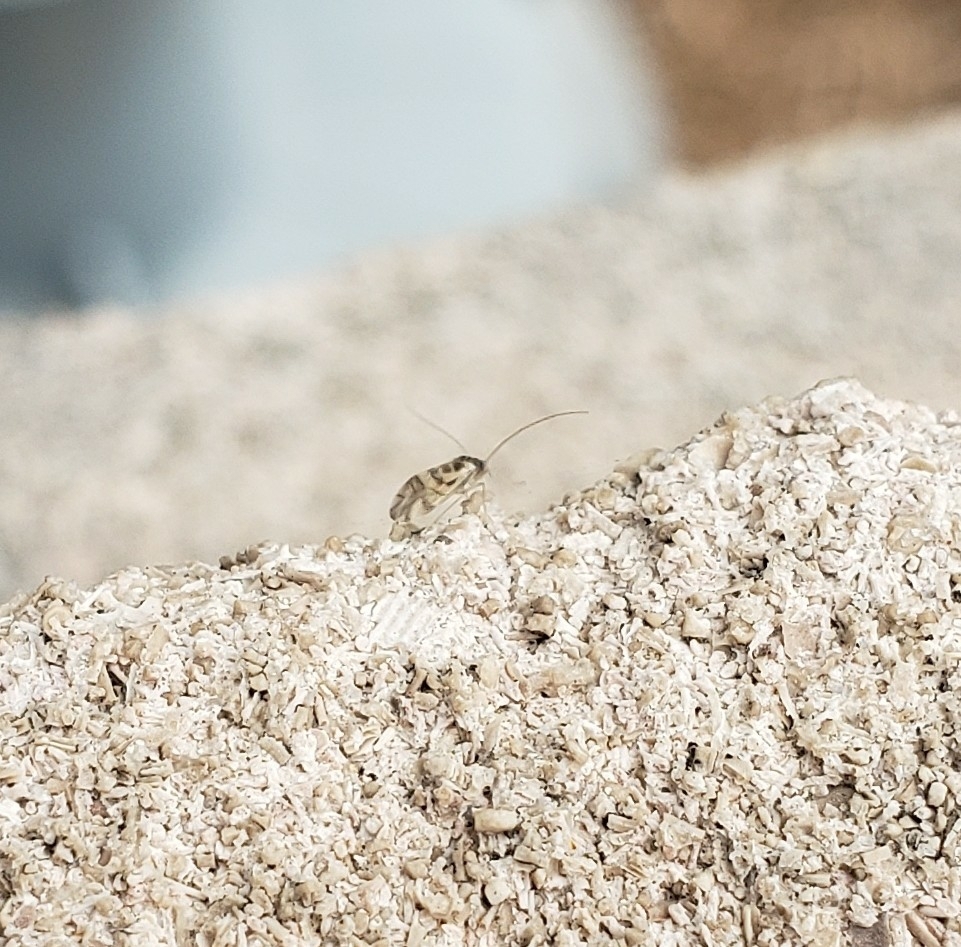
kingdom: Animalia
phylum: Arthropoda
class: Insecta
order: Psocodea
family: Stenopsocidae
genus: Graphopsocus
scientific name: Graphopsocus cruciatus
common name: Lizard bark louse
